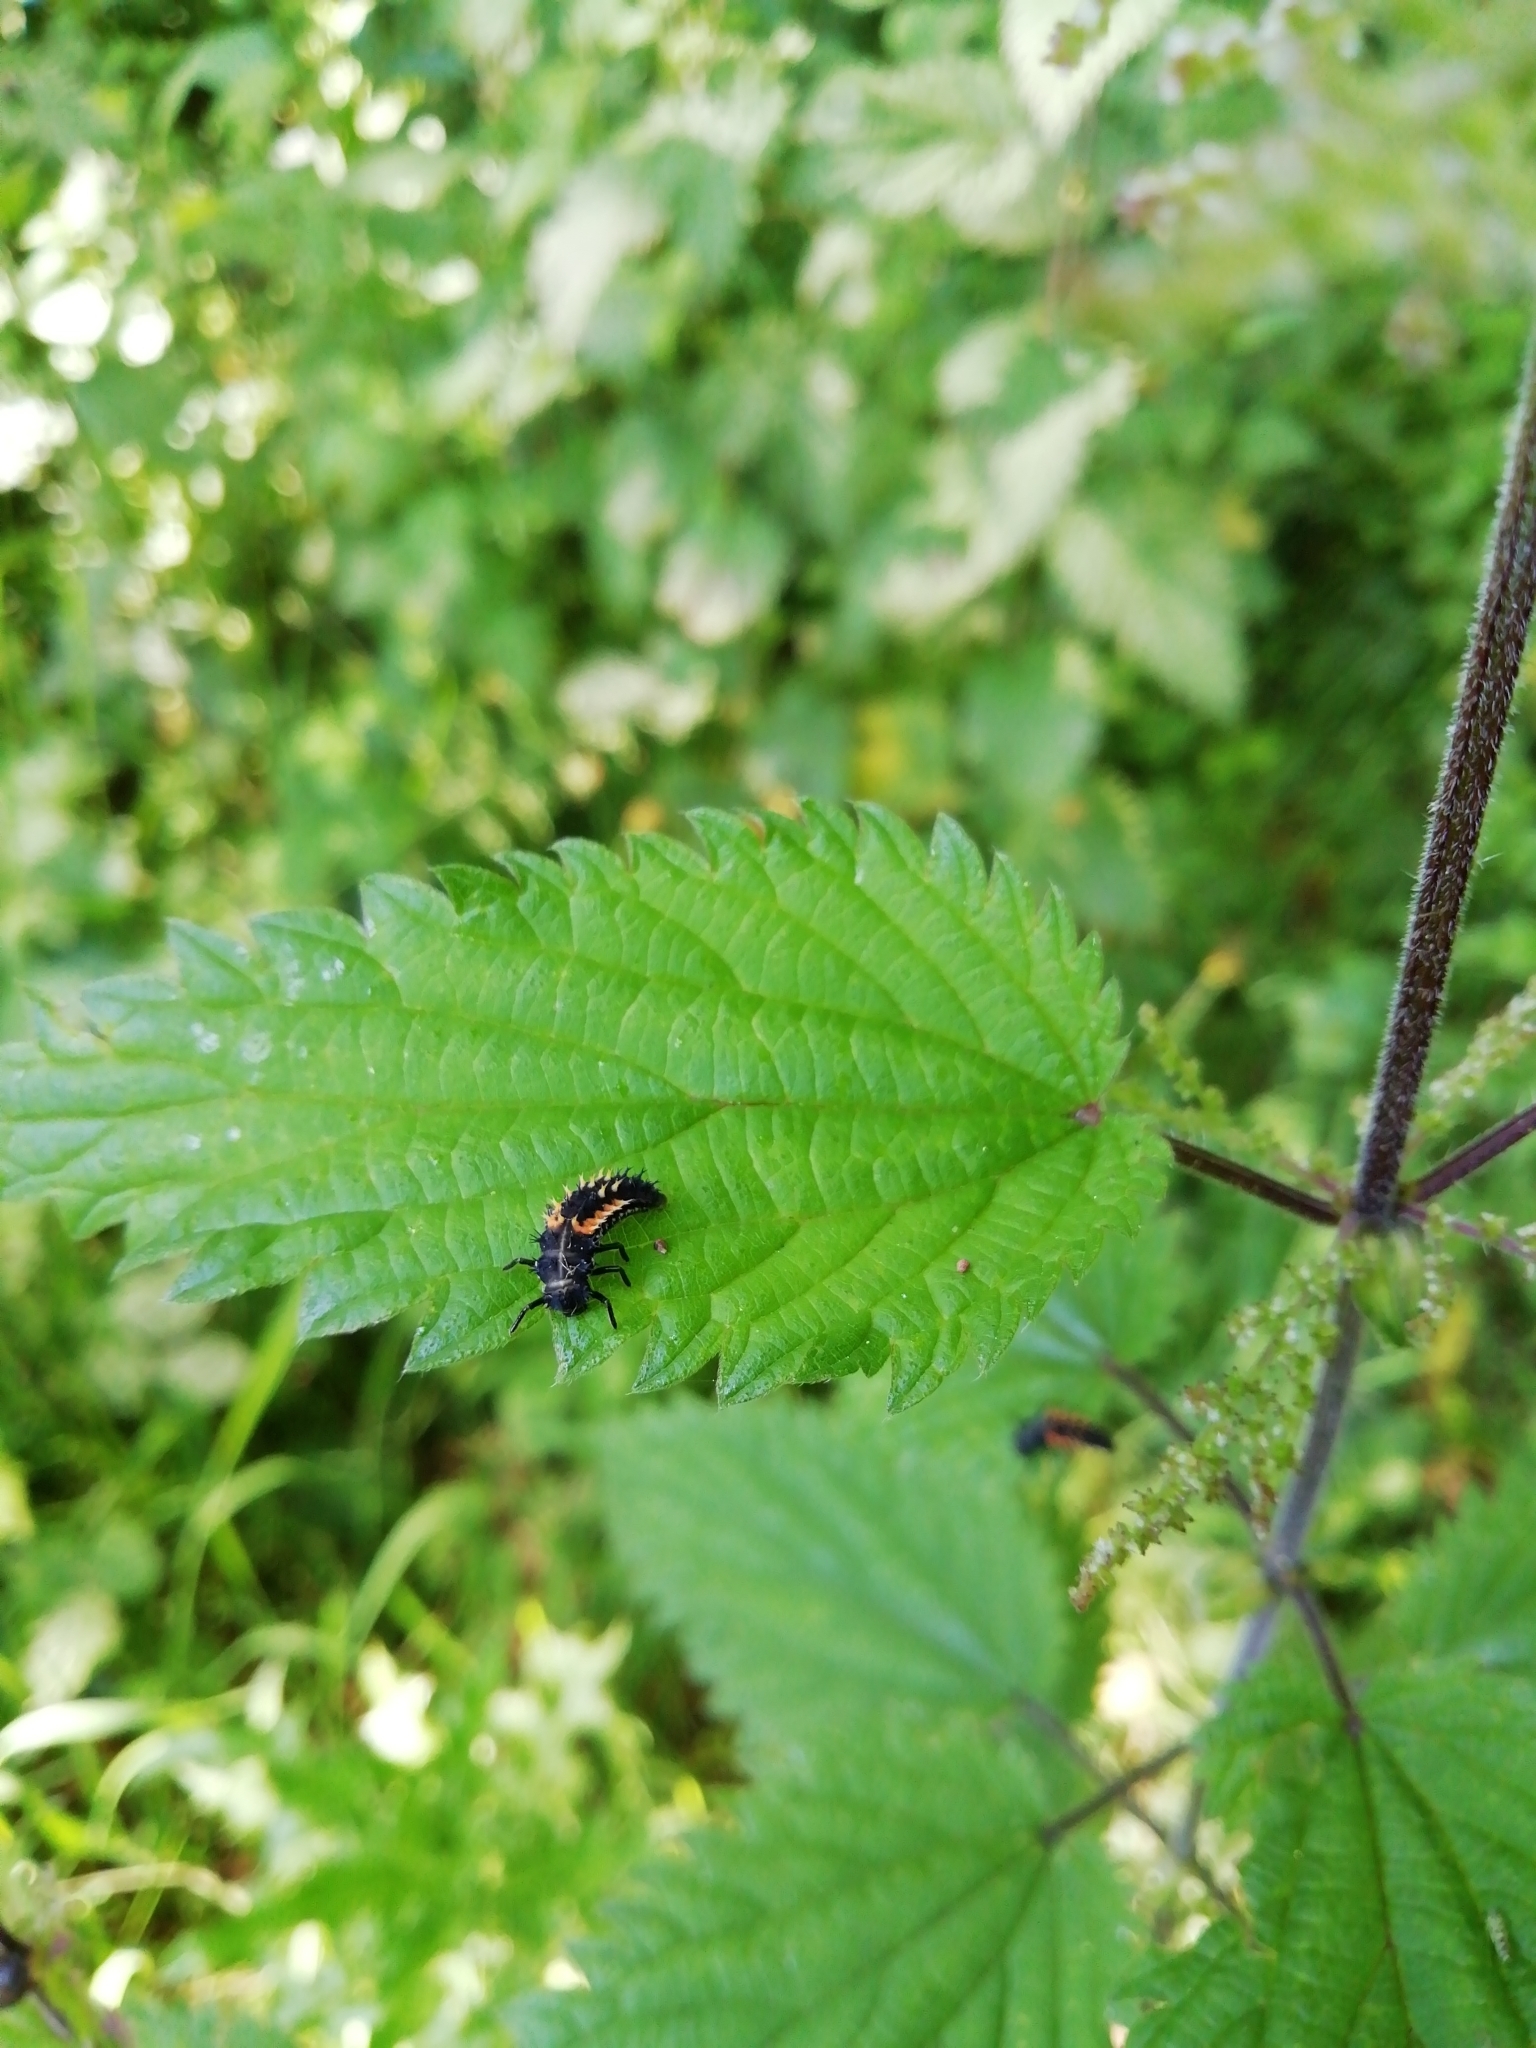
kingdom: Animalia
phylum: Arthropoda
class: Insecta
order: Coleoptera
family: Coccinellidae
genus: Harmonia
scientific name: Harmonia axyridis
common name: Harlequin ladybird
